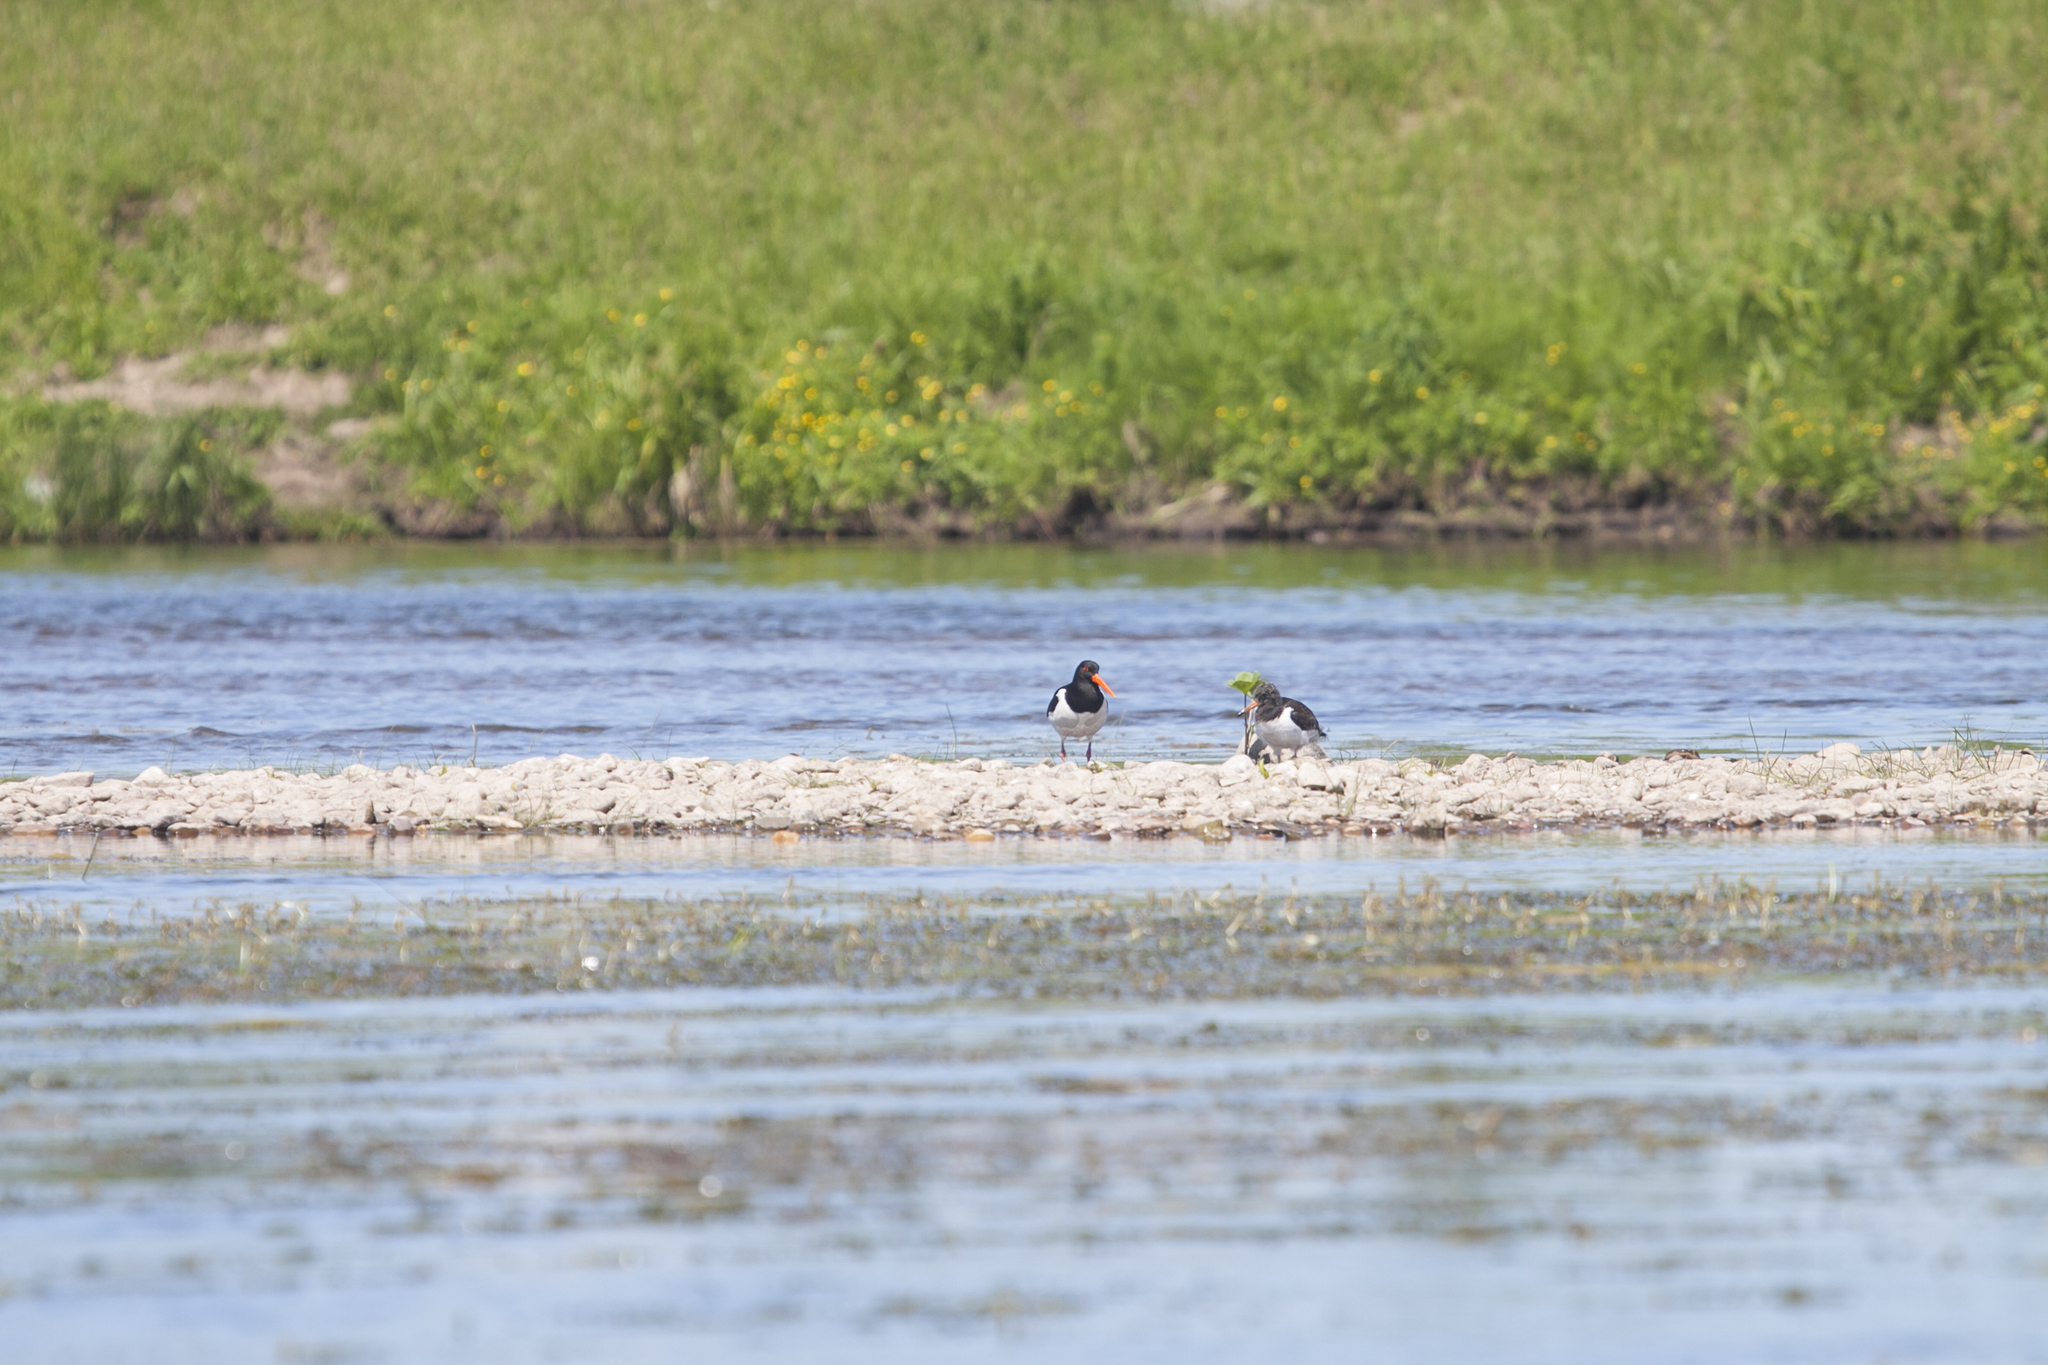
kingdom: Animalia
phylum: Chordata
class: Aves
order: Charadriiformes
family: Haematopodidae
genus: Haematopus
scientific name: Haematopus ostralegus
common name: Eurasian oystercatcher
